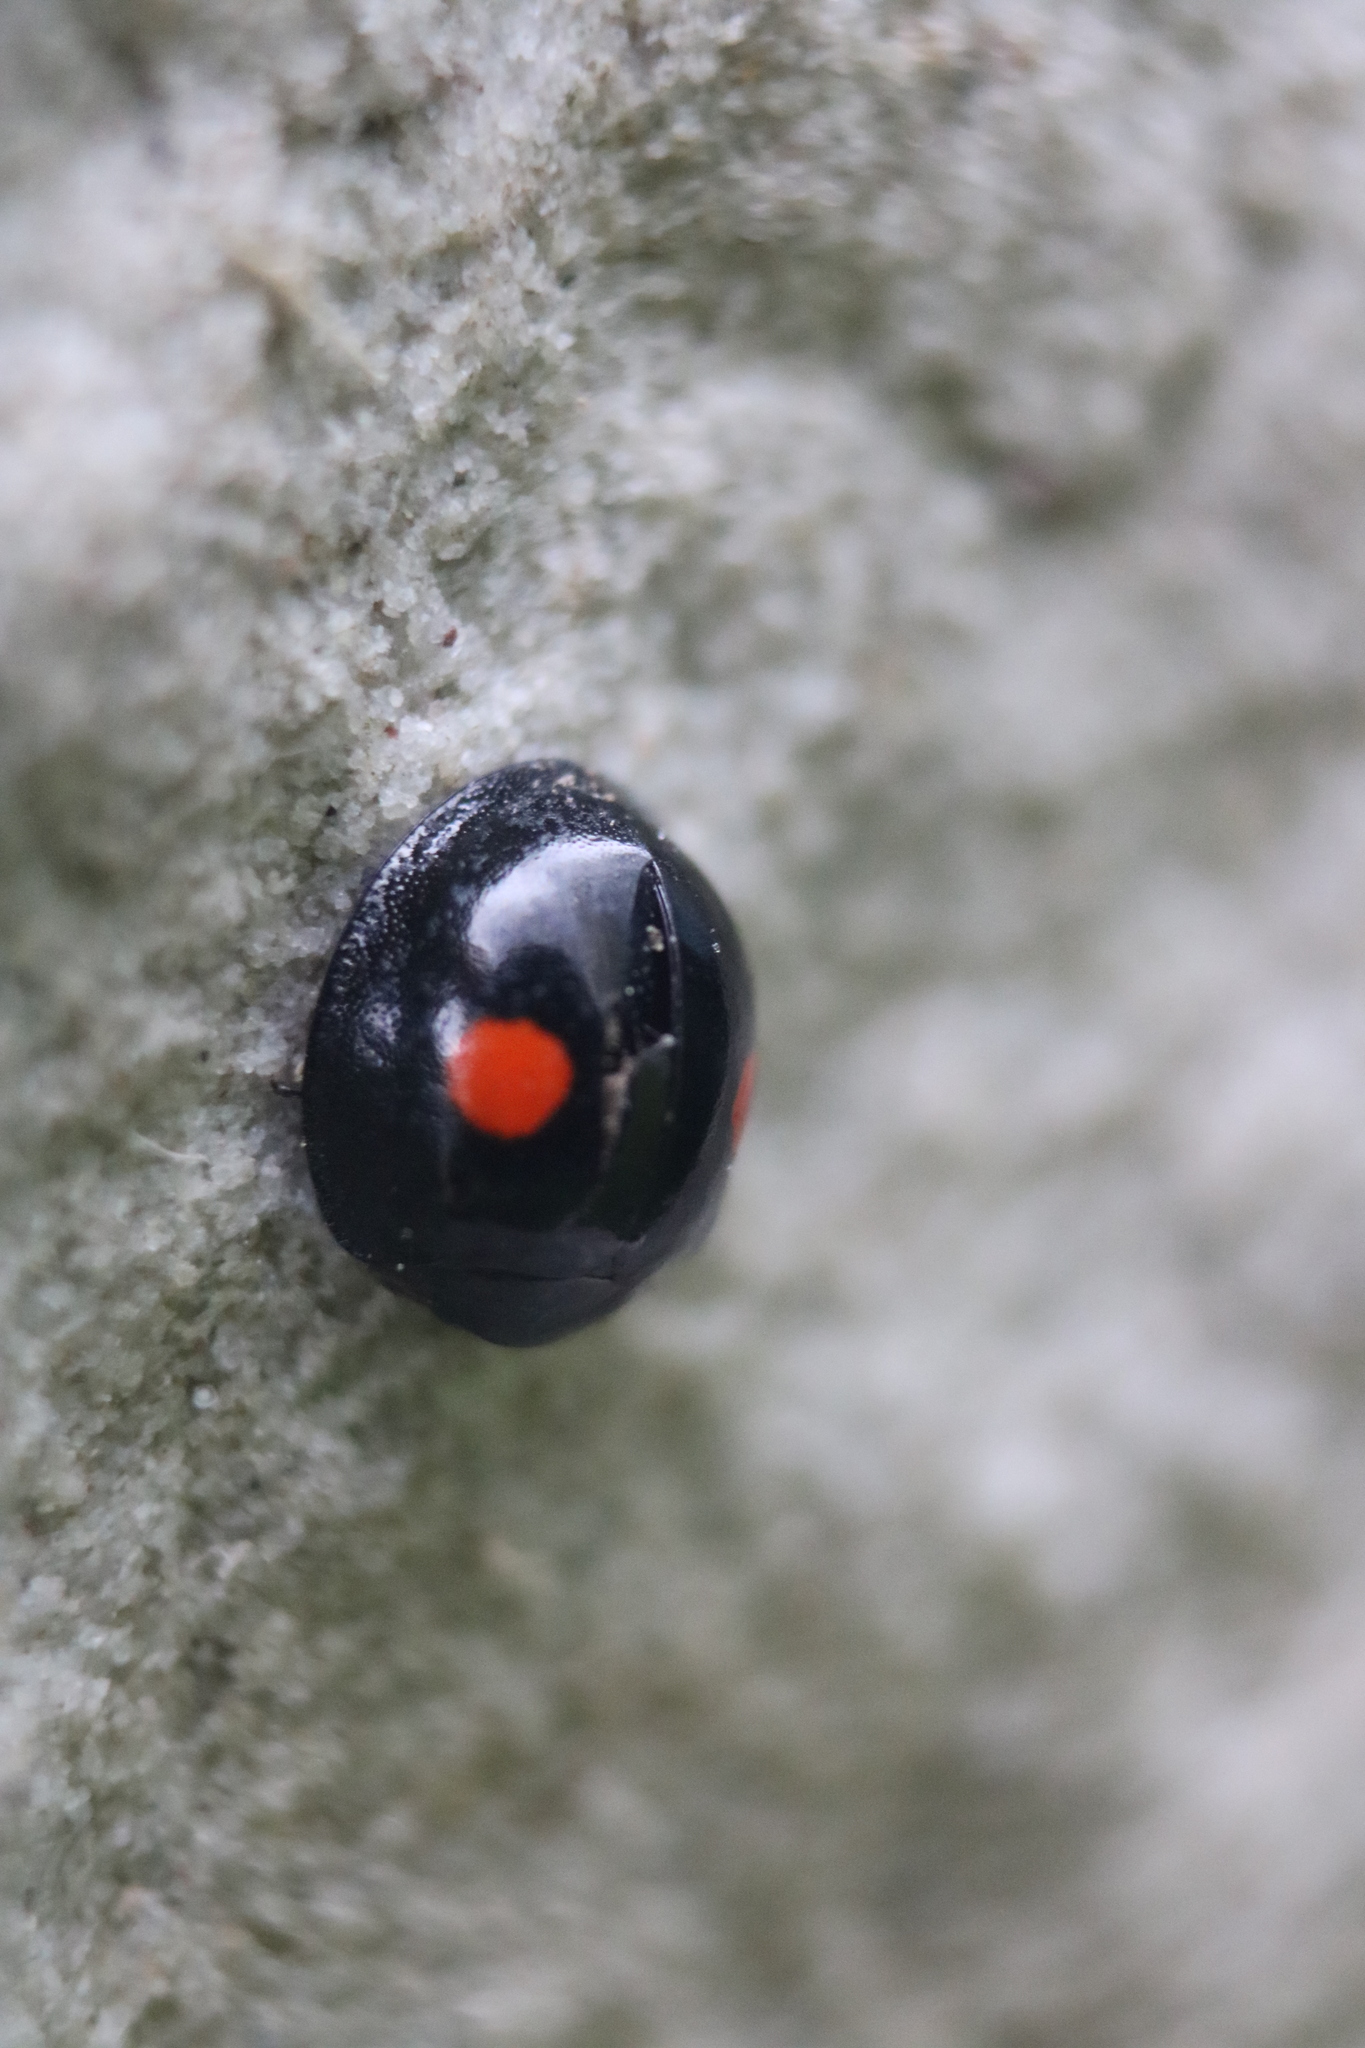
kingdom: Animalia
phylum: Arthropoda
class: Insecta
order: Coleoptera
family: Coccinellidae
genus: Chilocorus
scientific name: Chilocorus stigma
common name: Twicestabbed lady beetle
